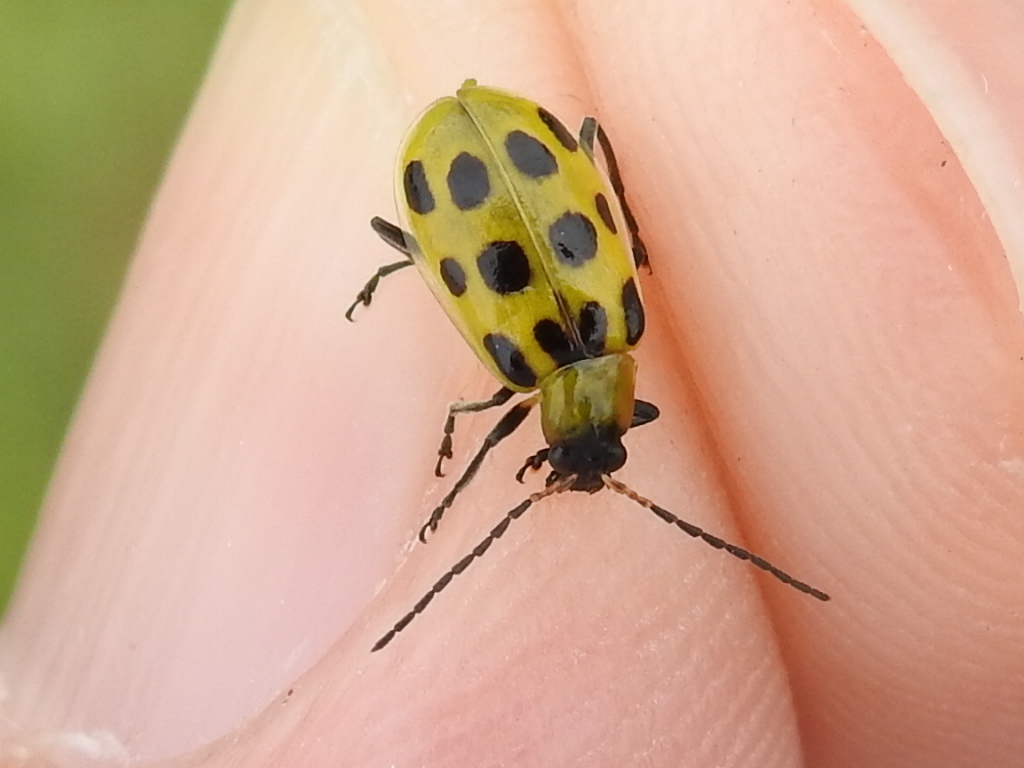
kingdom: Animalia
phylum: Arthropoda
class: Insecta
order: Coleoptera
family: Chrysomelidae
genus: Diabrotica
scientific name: Diabrotica undecimpunctata
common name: Spotted cucumber beetle
